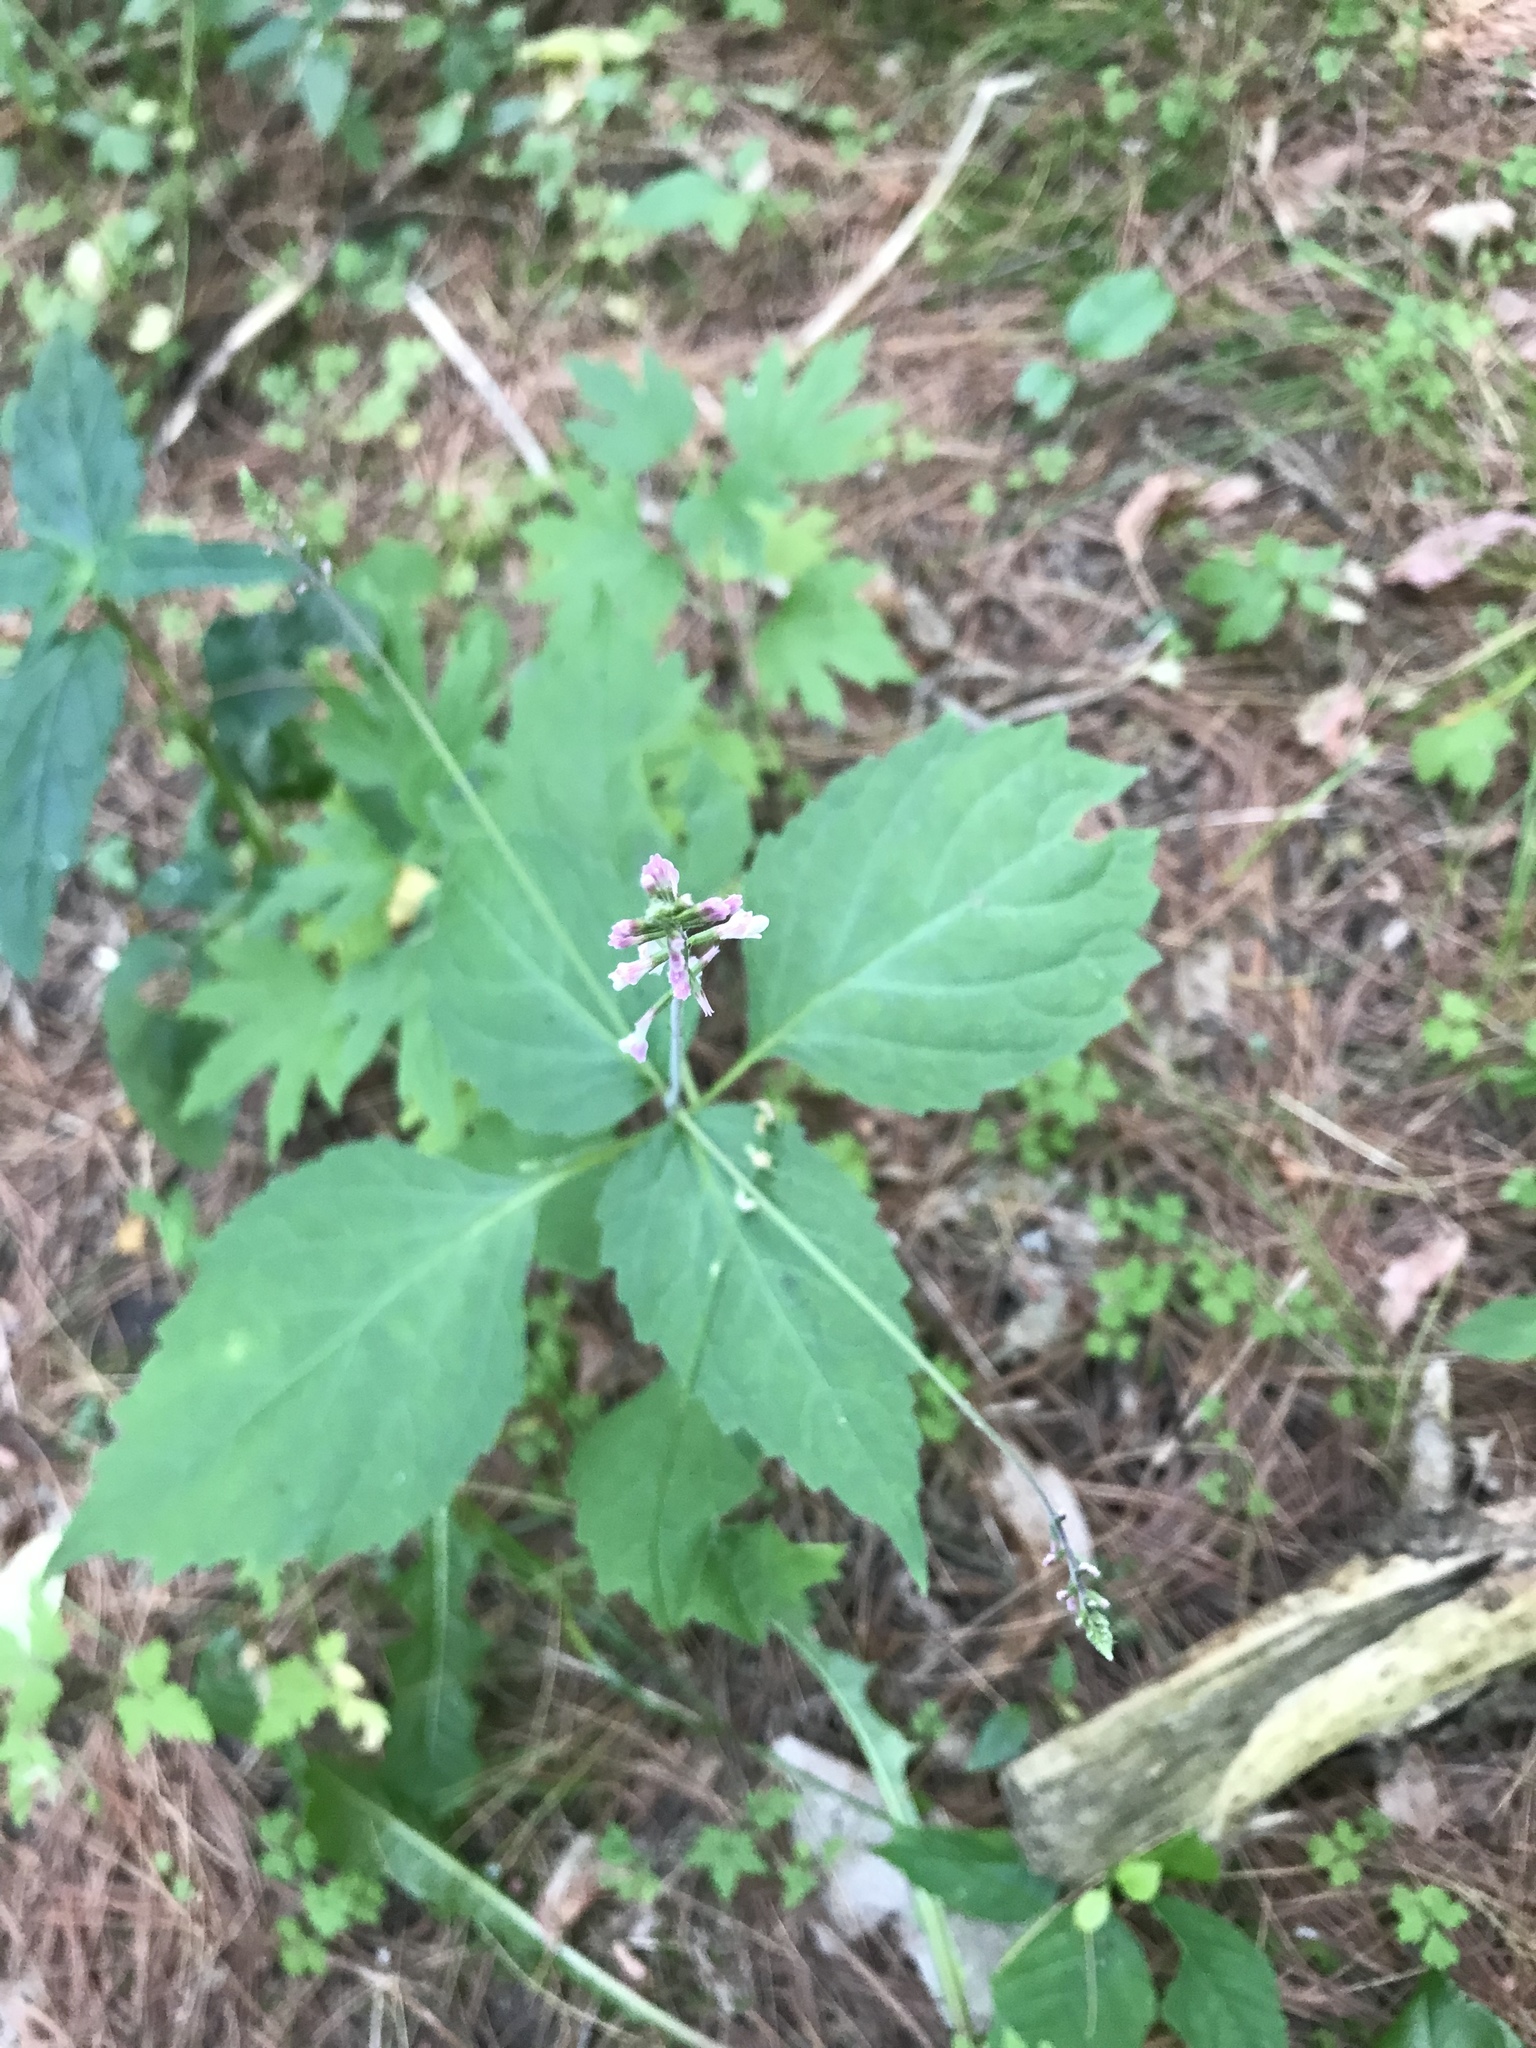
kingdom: Plantae
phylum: Tracheophyta
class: Magnoliopsida
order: Lamiales
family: Phrymaceae
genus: Phryma
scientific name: Phryma leptostachya
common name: American lopseed
